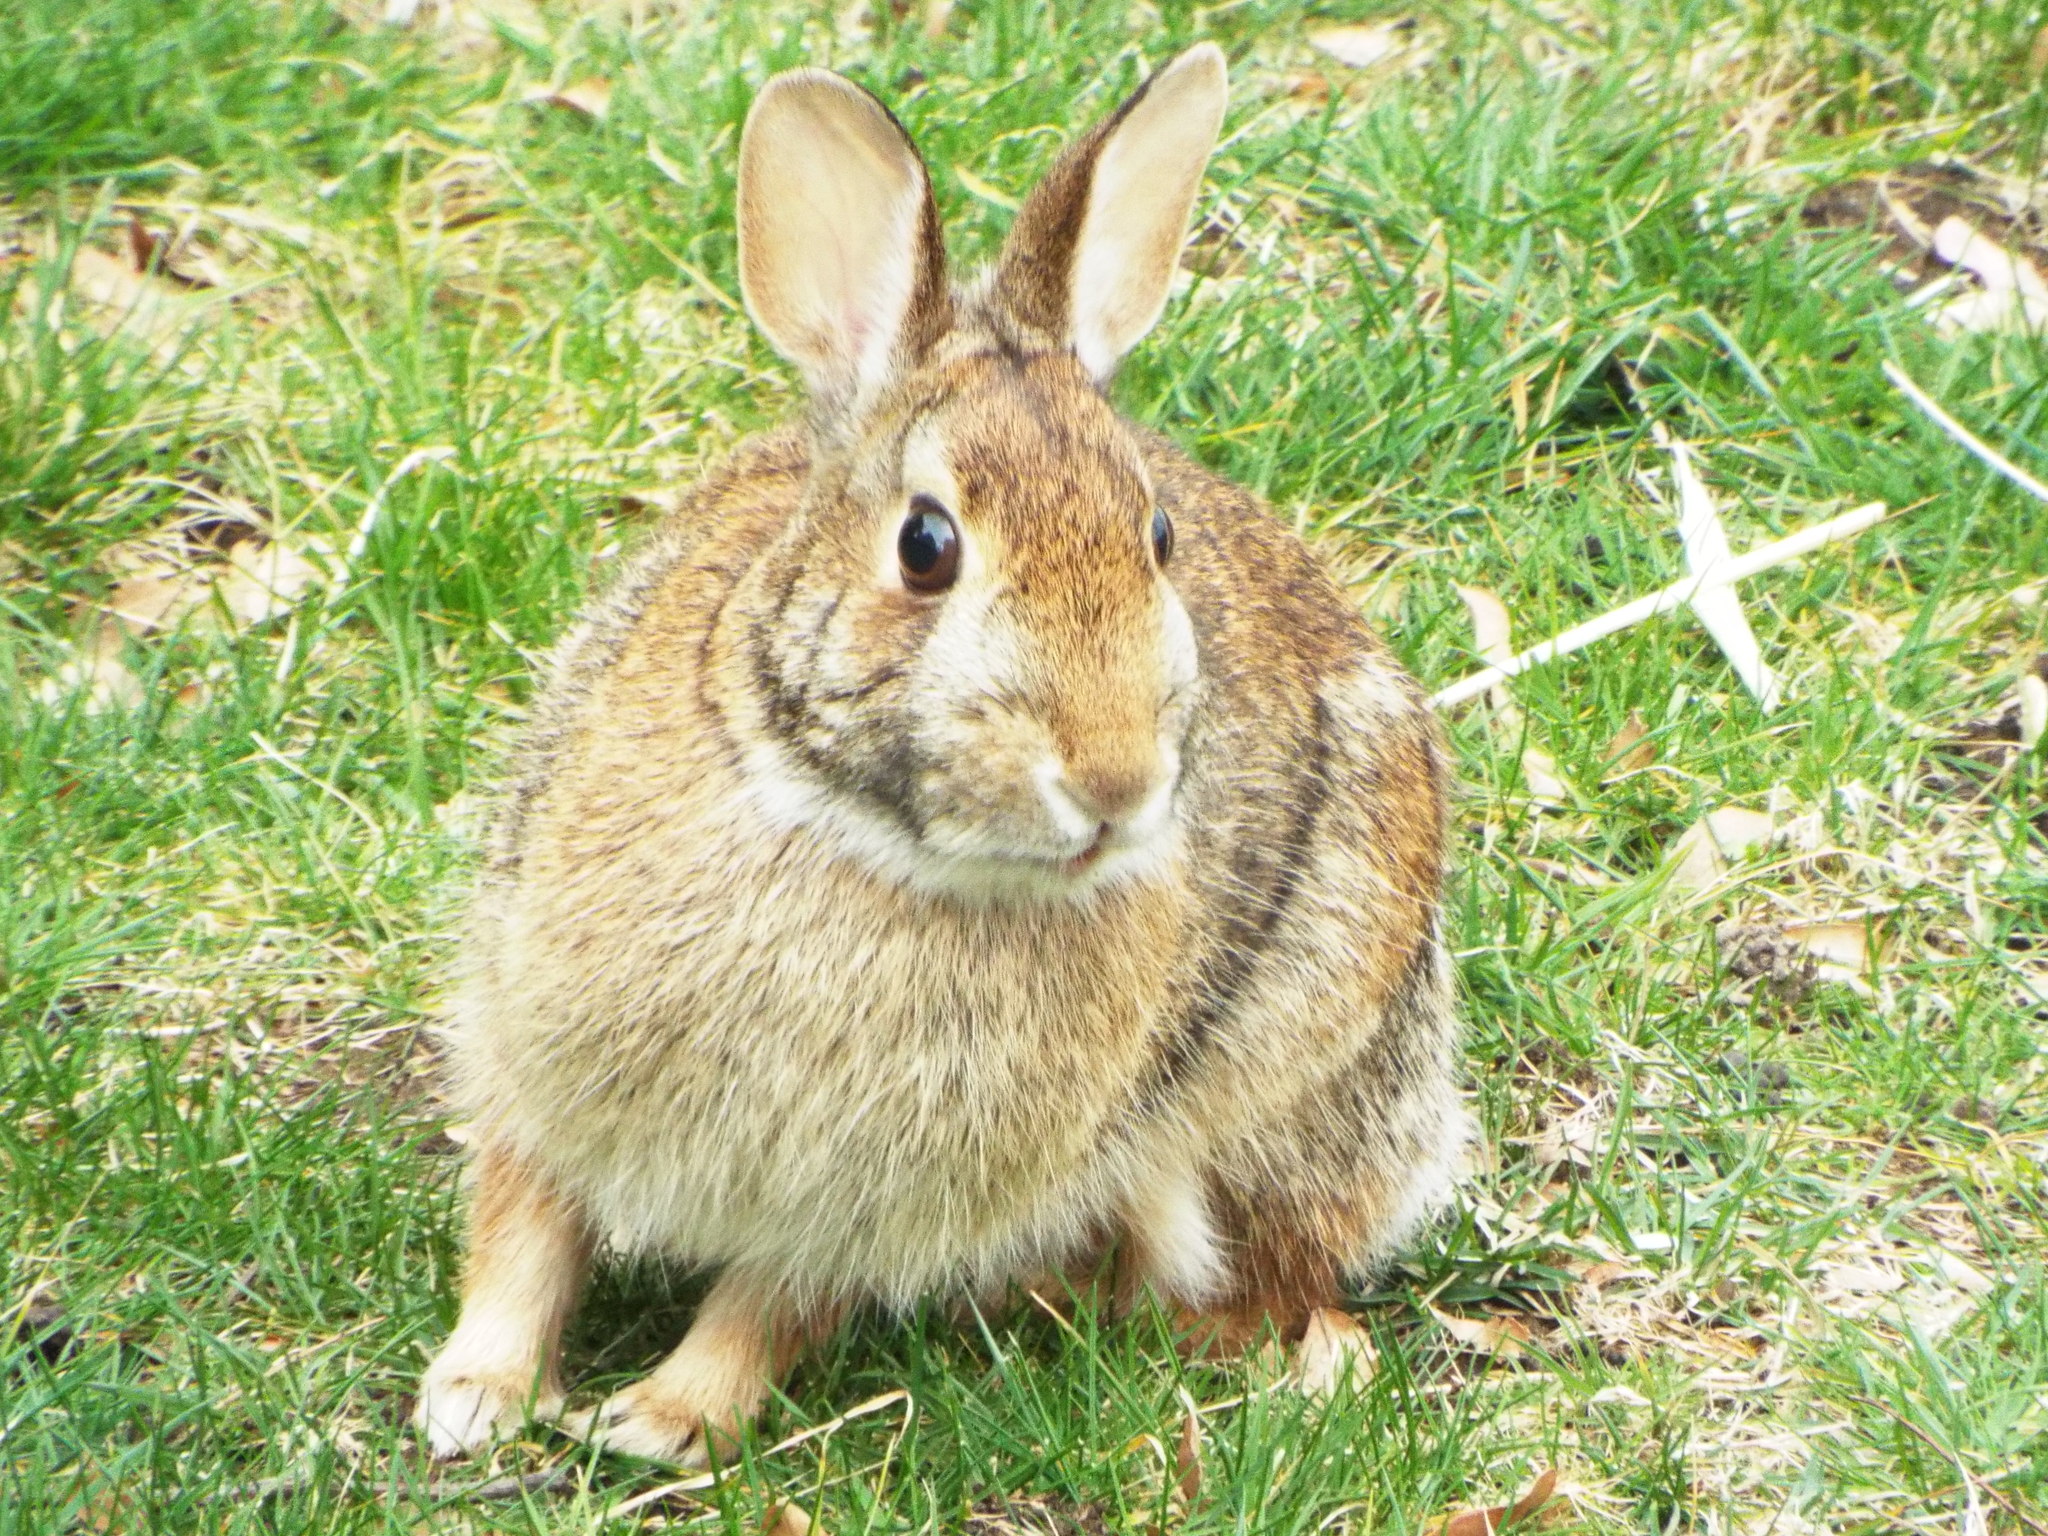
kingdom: Animalia
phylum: Chordata
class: Mammalia
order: Lagomorpha
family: Leporidae
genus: Sylvilagus
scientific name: Sylvilagus floridanus
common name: Eastern cottontail
